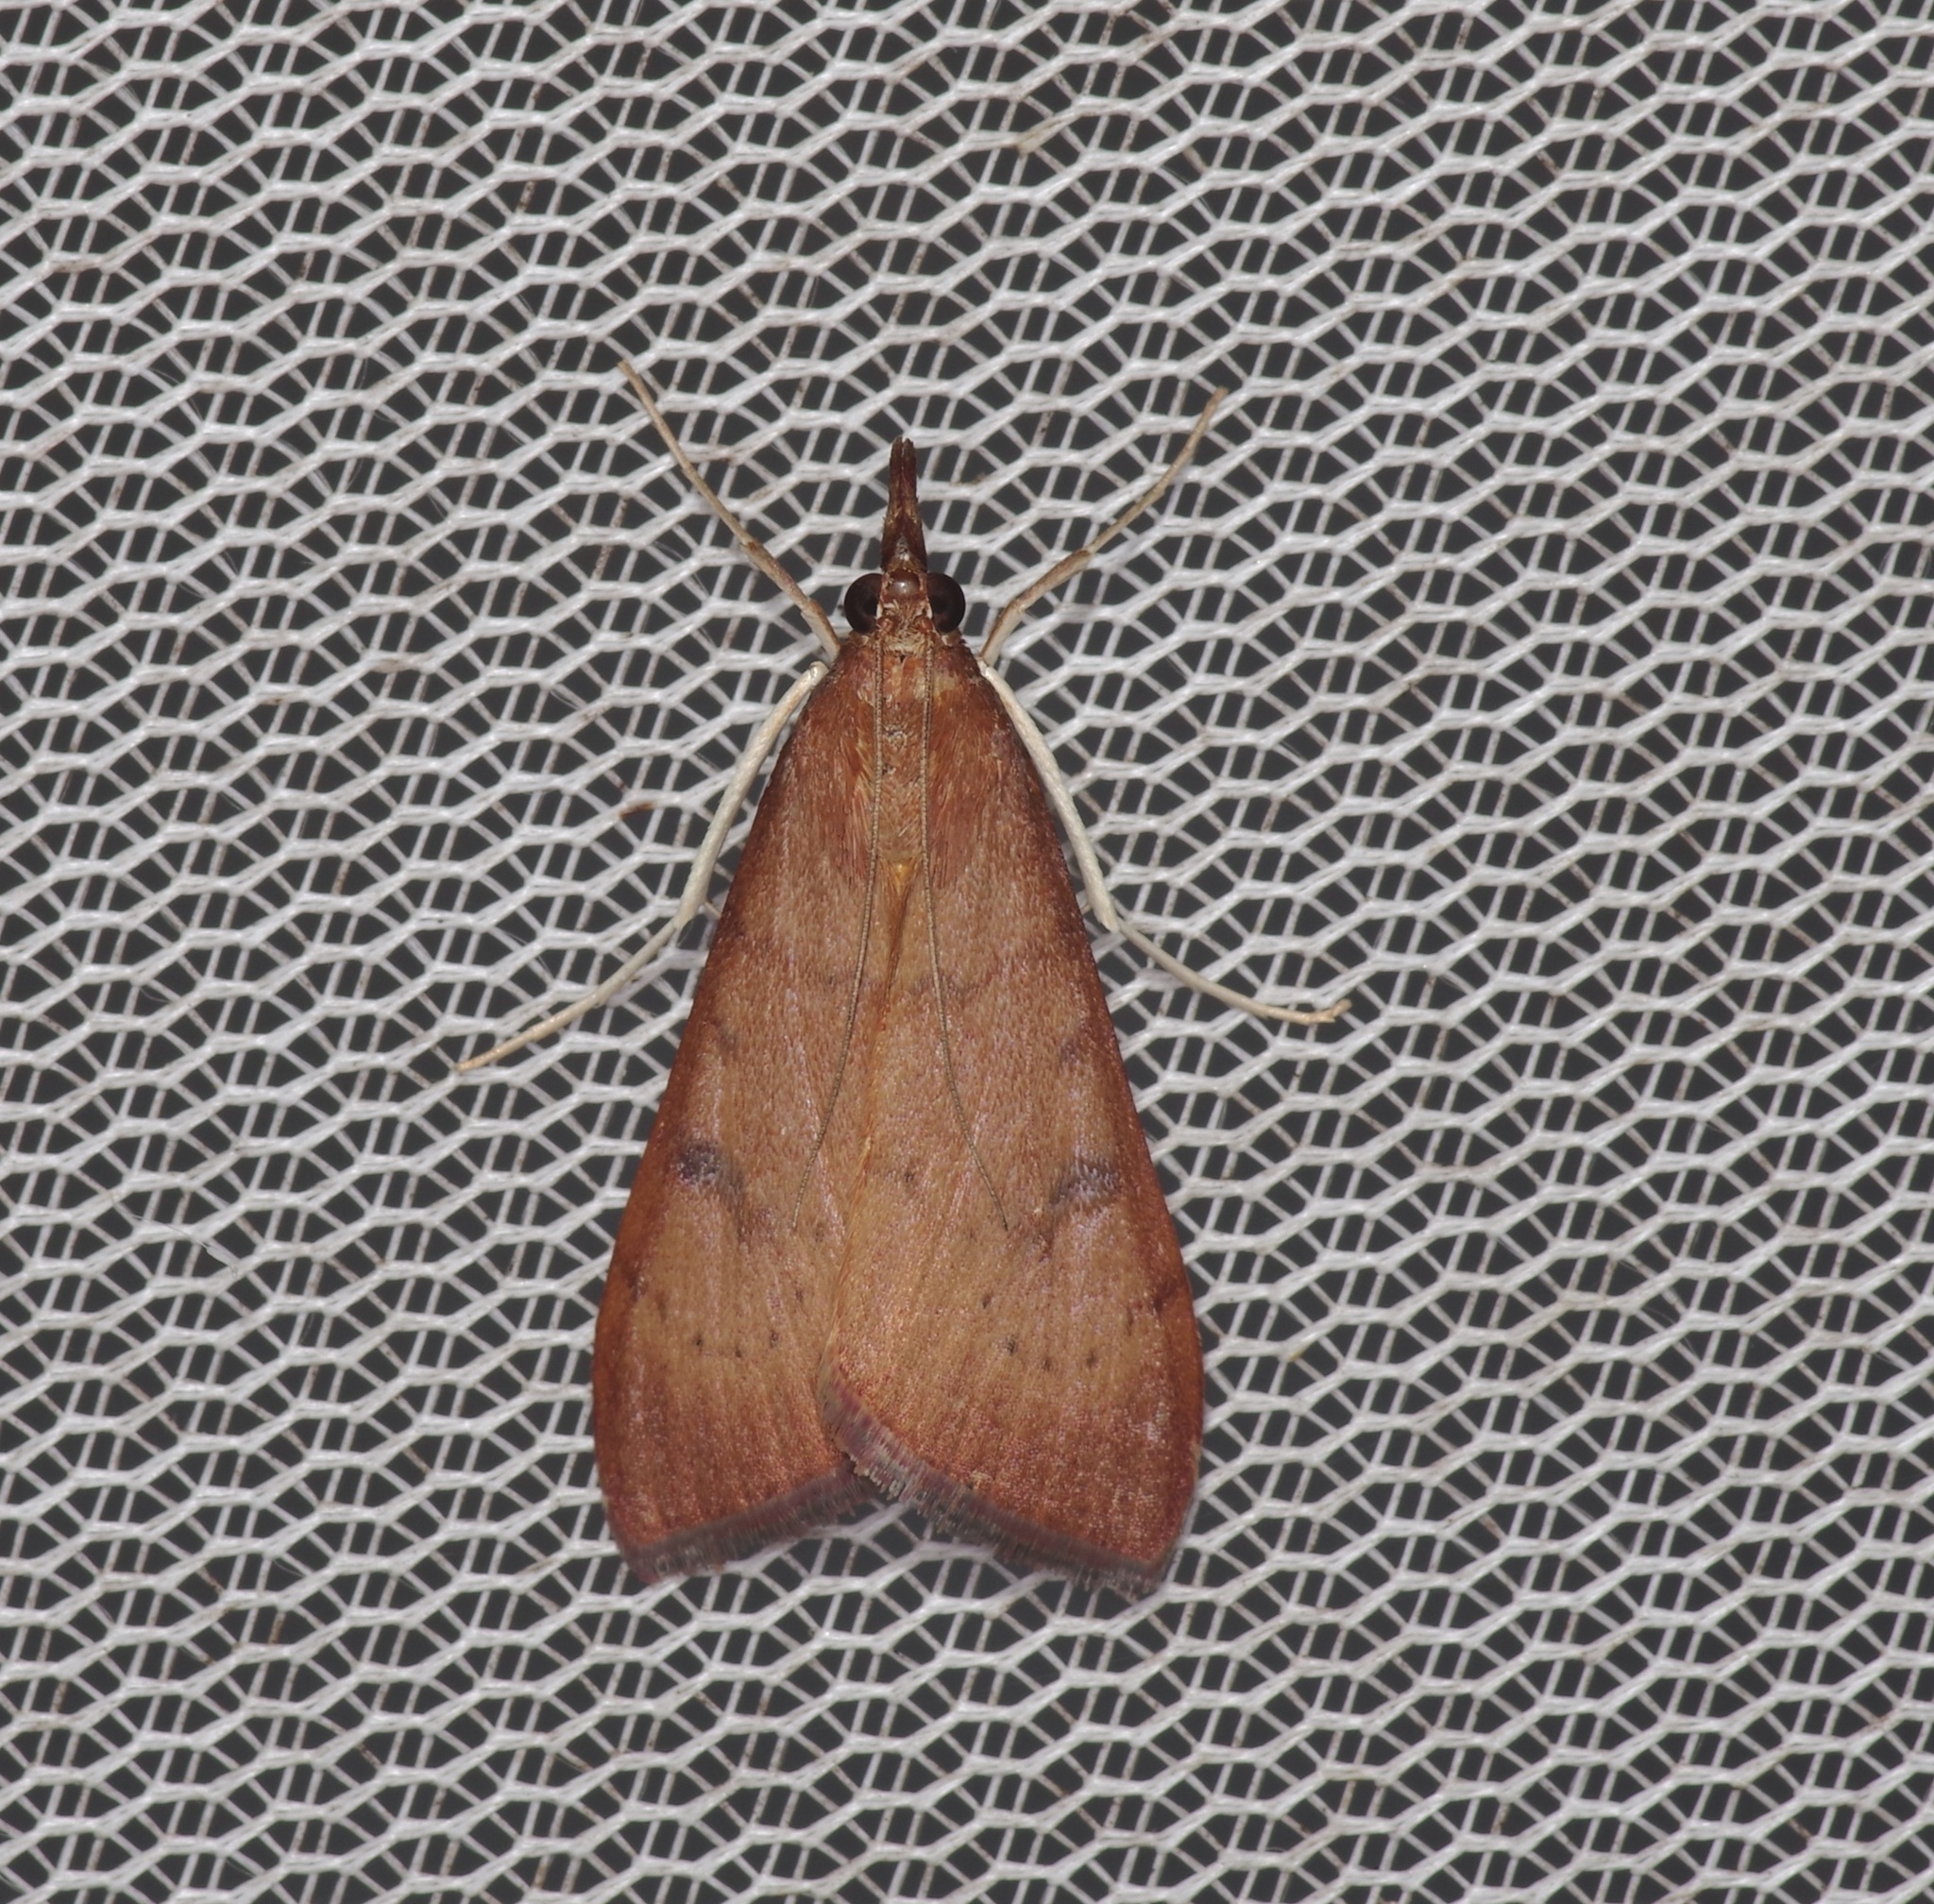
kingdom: Animalia
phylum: Arthropoda
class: Insecta
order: Lepidoptera
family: Crambidae
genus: Uresiphita
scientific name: Uresiphita reversalis
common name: Genista broom moth
